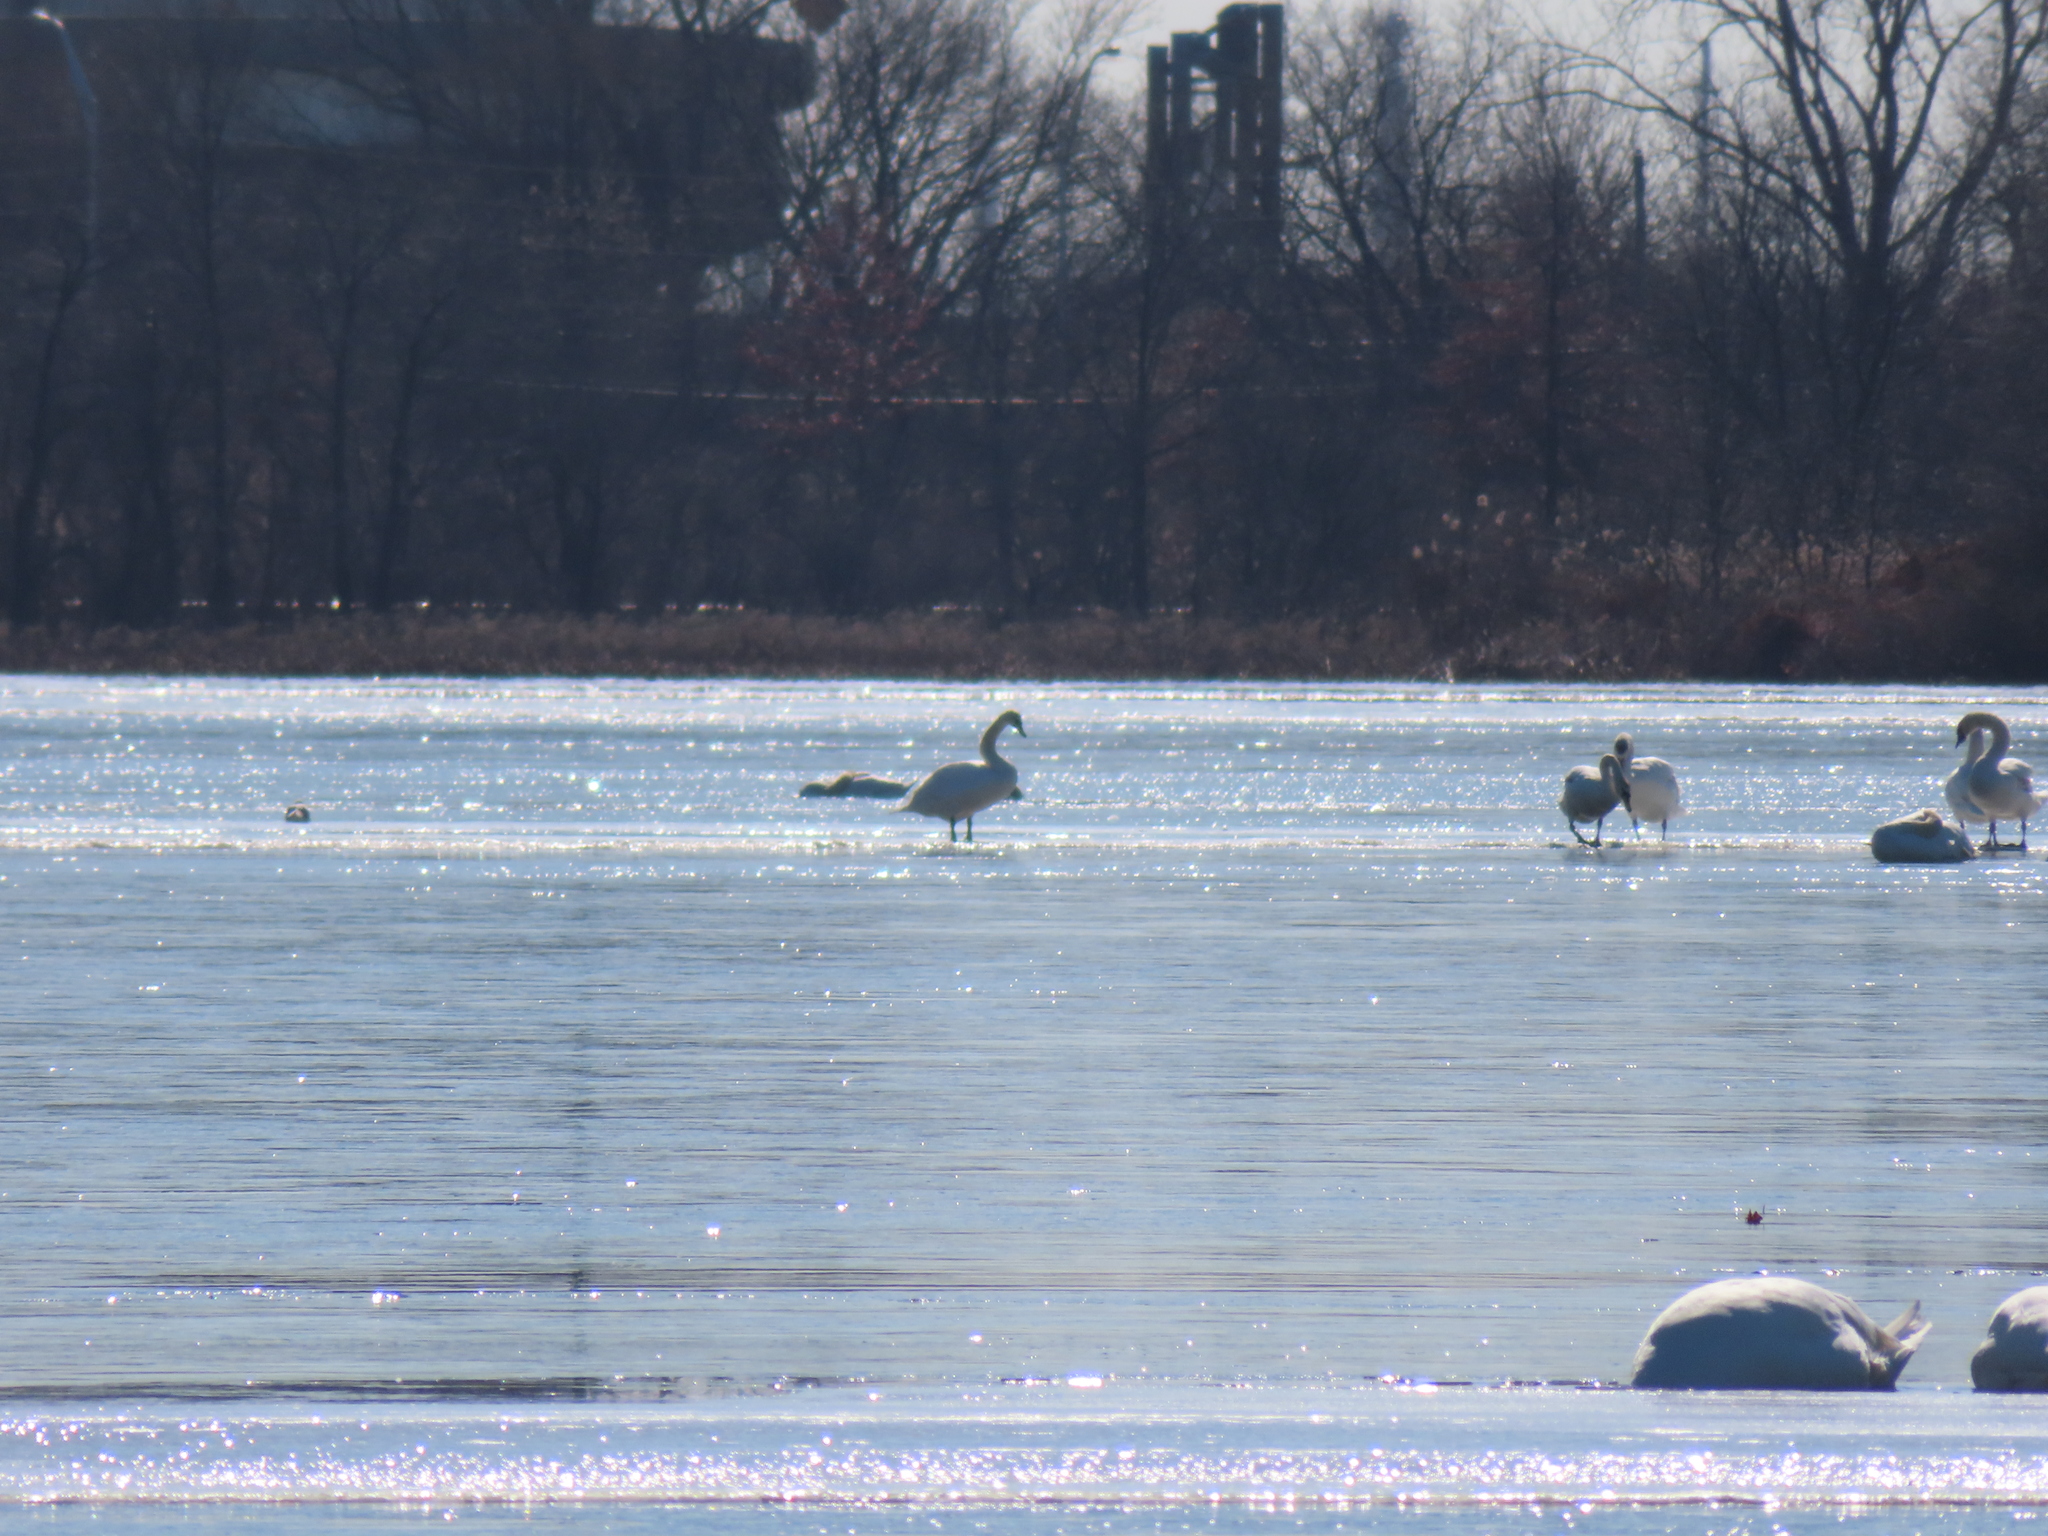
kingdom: Animalia
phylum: Chordata
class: Aves
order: Anseriformes
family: Anatidae
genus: Cygnus
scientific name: Cygnus olor
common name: Mute swan
